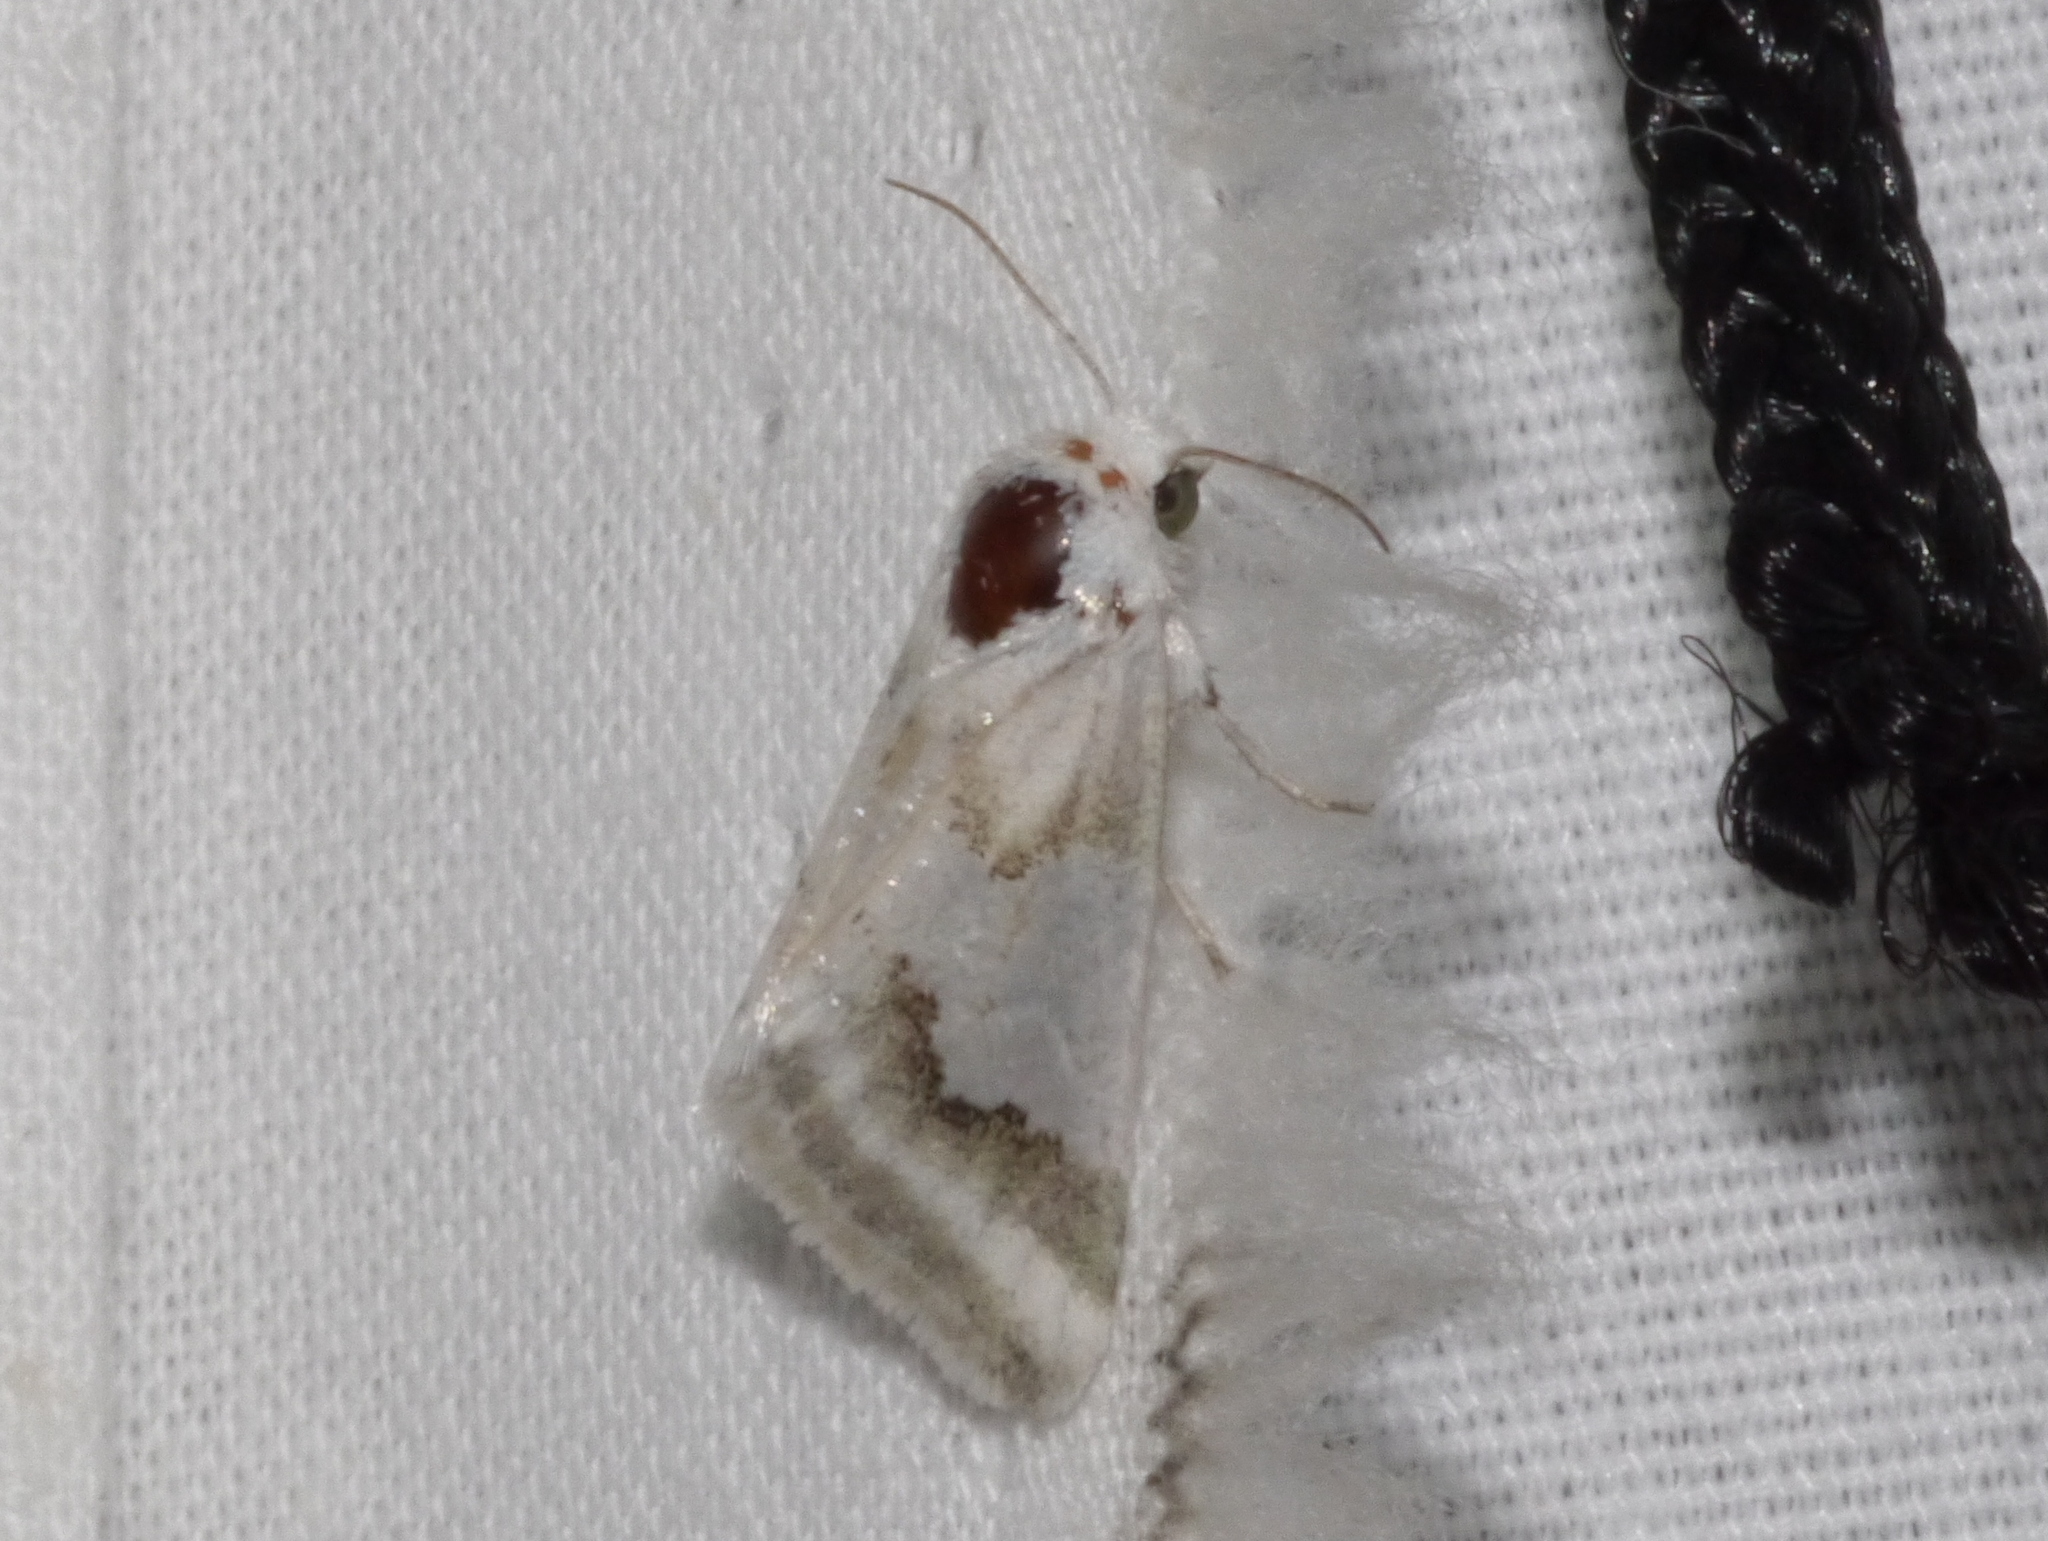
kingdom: Animalia
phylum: Arthropoda
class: Insecta
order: Lepidoptera
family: Noctuidae
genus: Schinia
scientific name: Schinia hulstia
